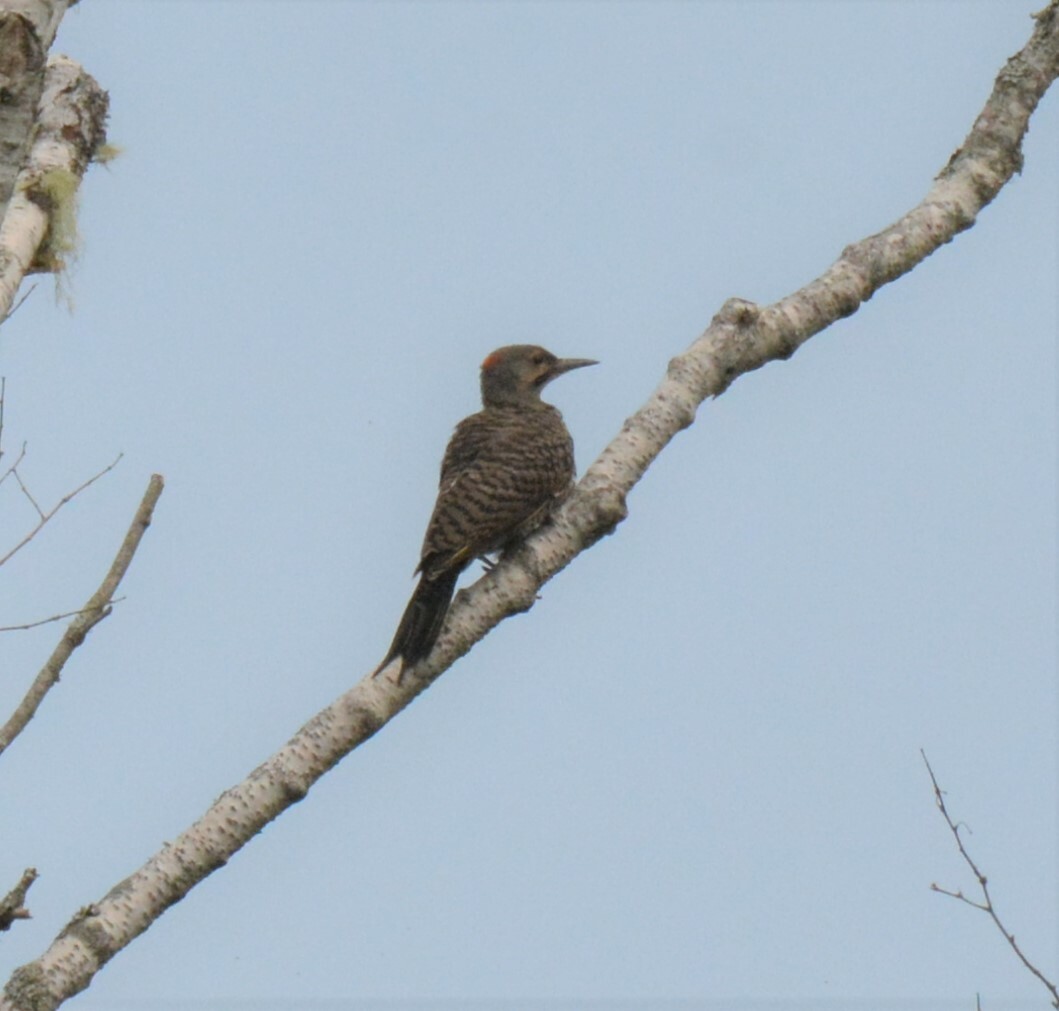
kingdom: Animalia
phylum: Chordata
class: Aves
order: Piciformes
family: Picidae
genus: Colaptes
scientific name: Colaptes auratus
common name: Northern flicker
